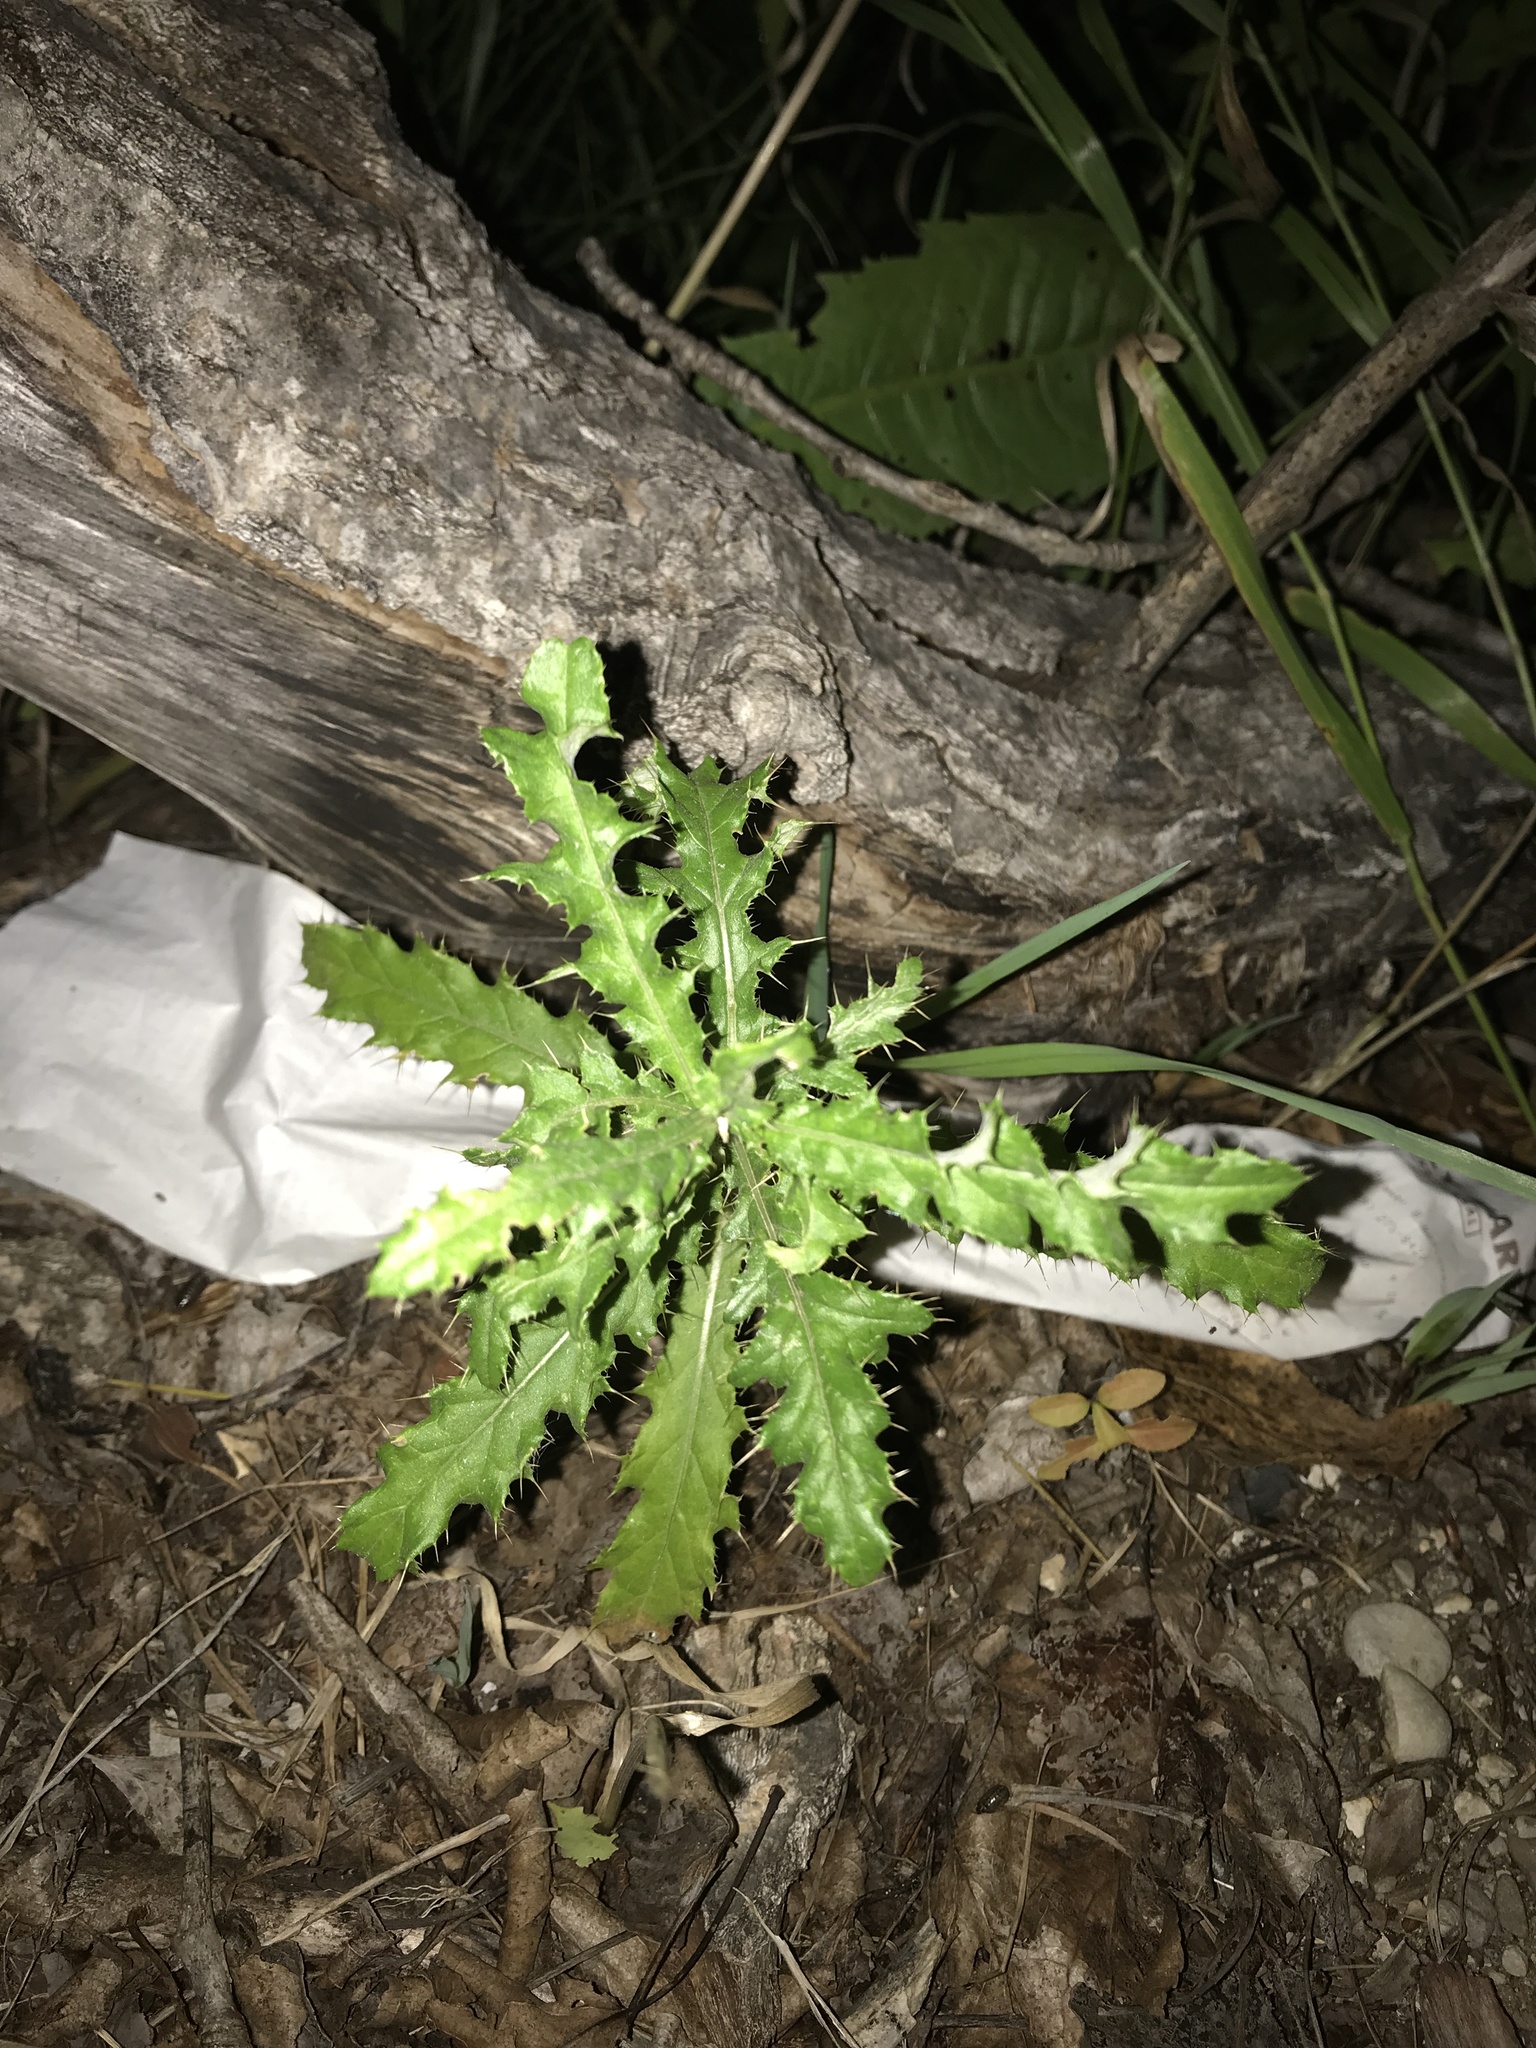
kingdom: Plantae
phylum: Tracheophyta
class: Magnoliopsida
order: Asterales
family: Asteraceae
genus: Cirsium
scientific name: Cirsium arvense
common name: Creeping thistle
